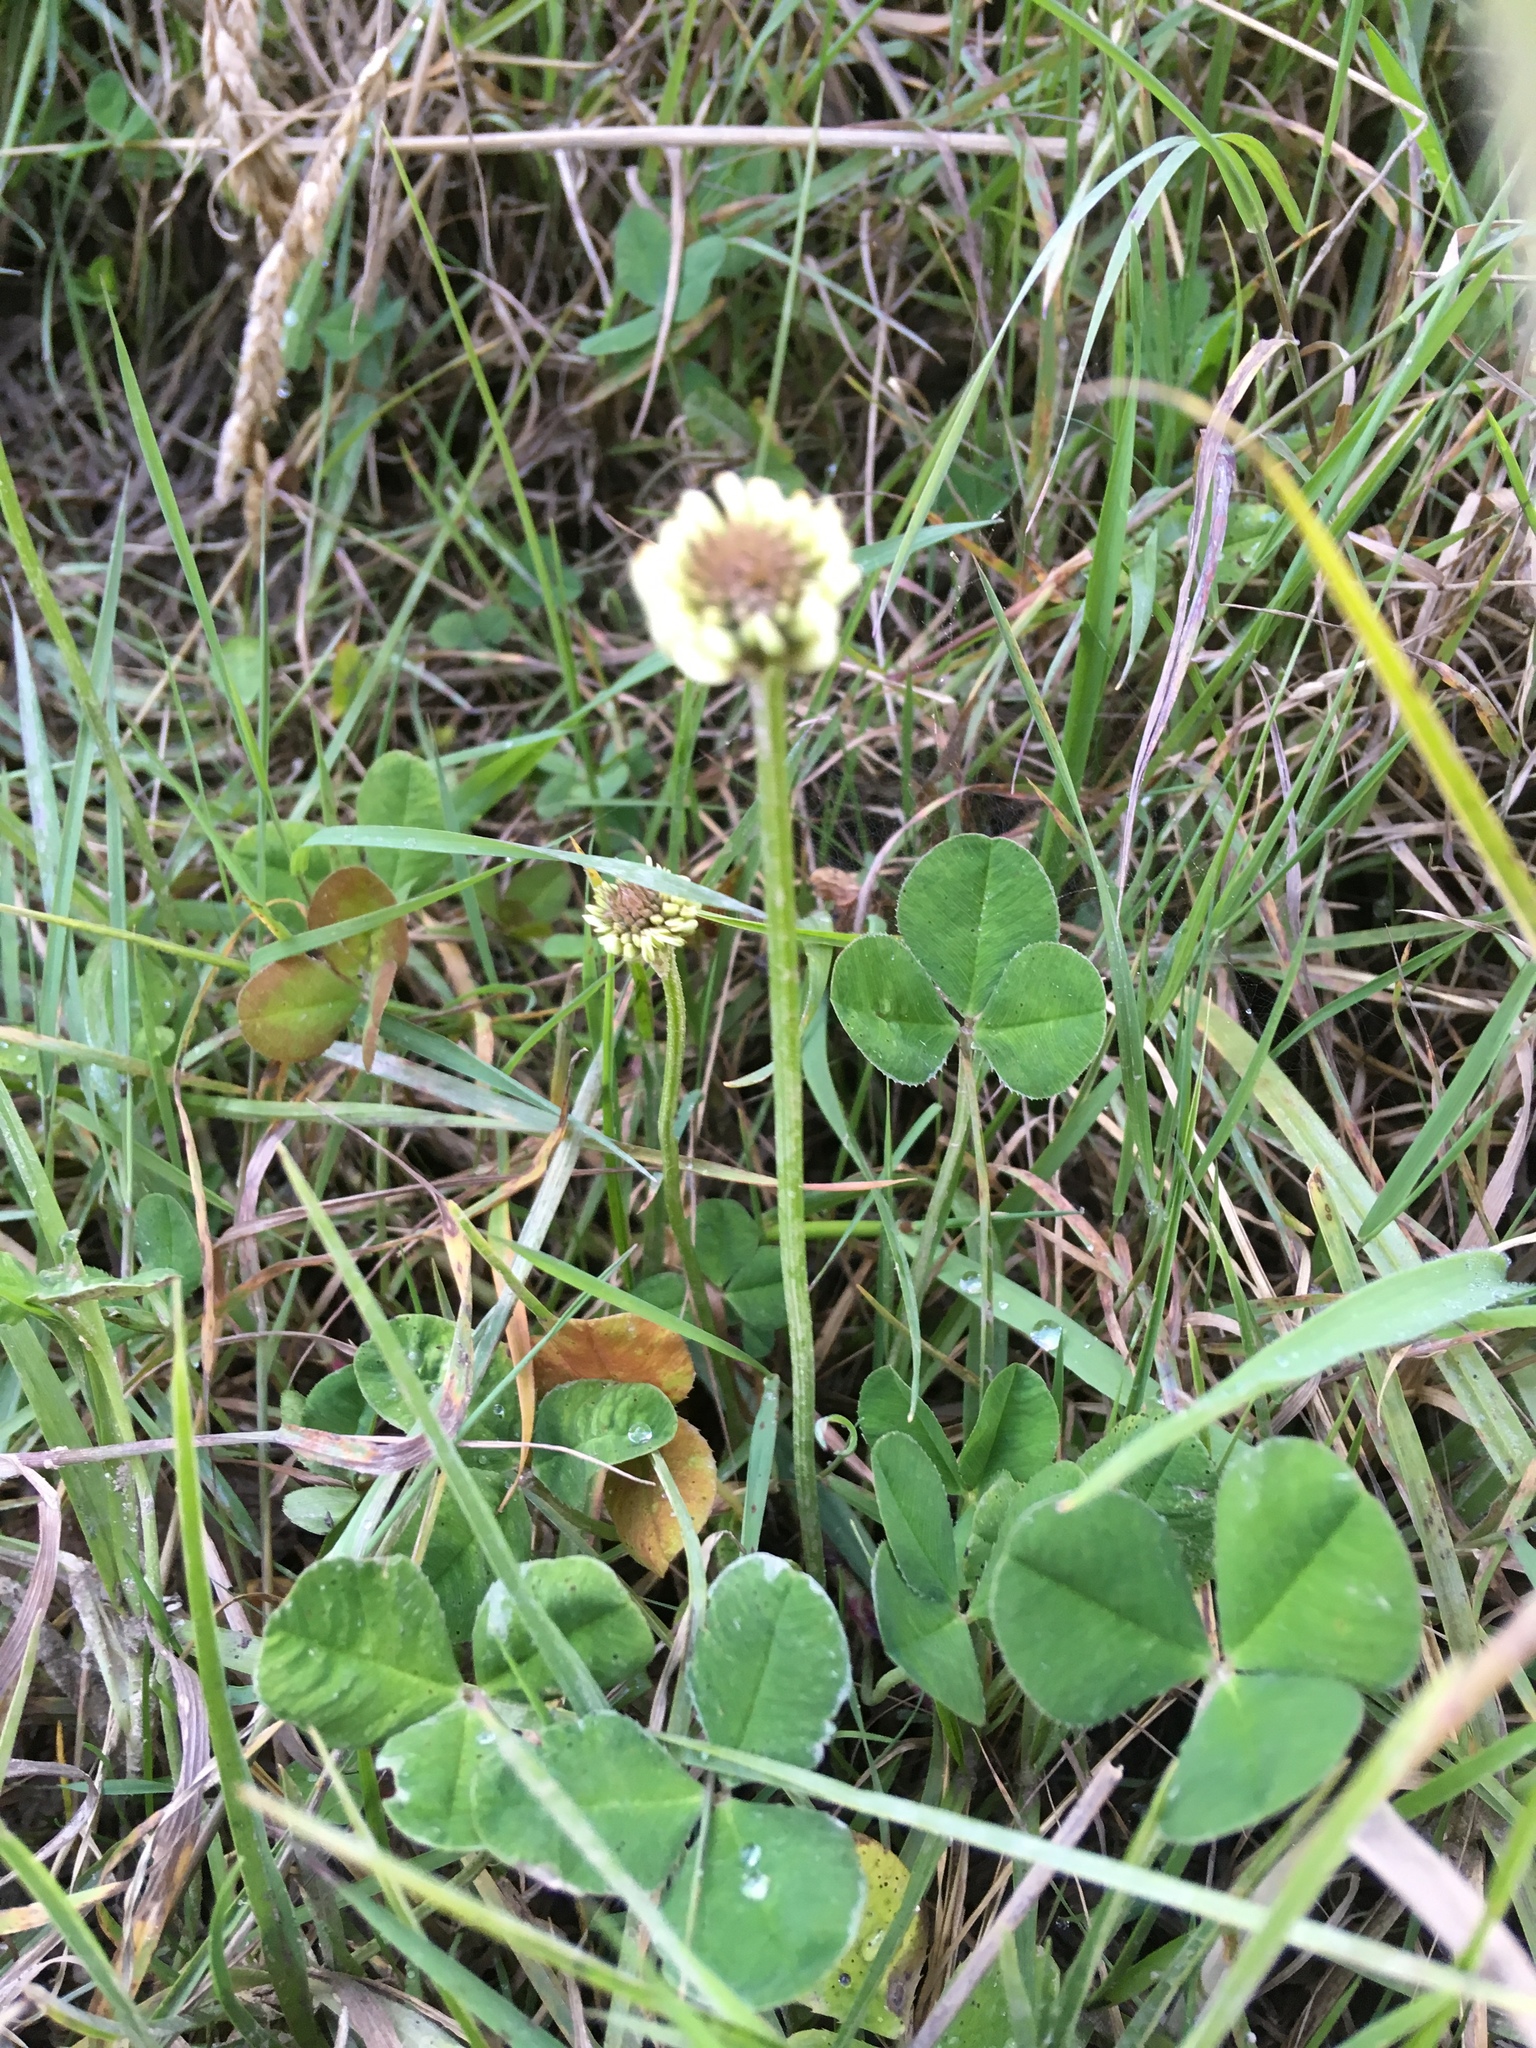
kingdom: Plantae
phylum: Tracheophyta
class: Magnoliopsida
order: Fabales
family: Fabaceae
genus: Trifolium
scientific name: Trifolium repens
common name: White clover
